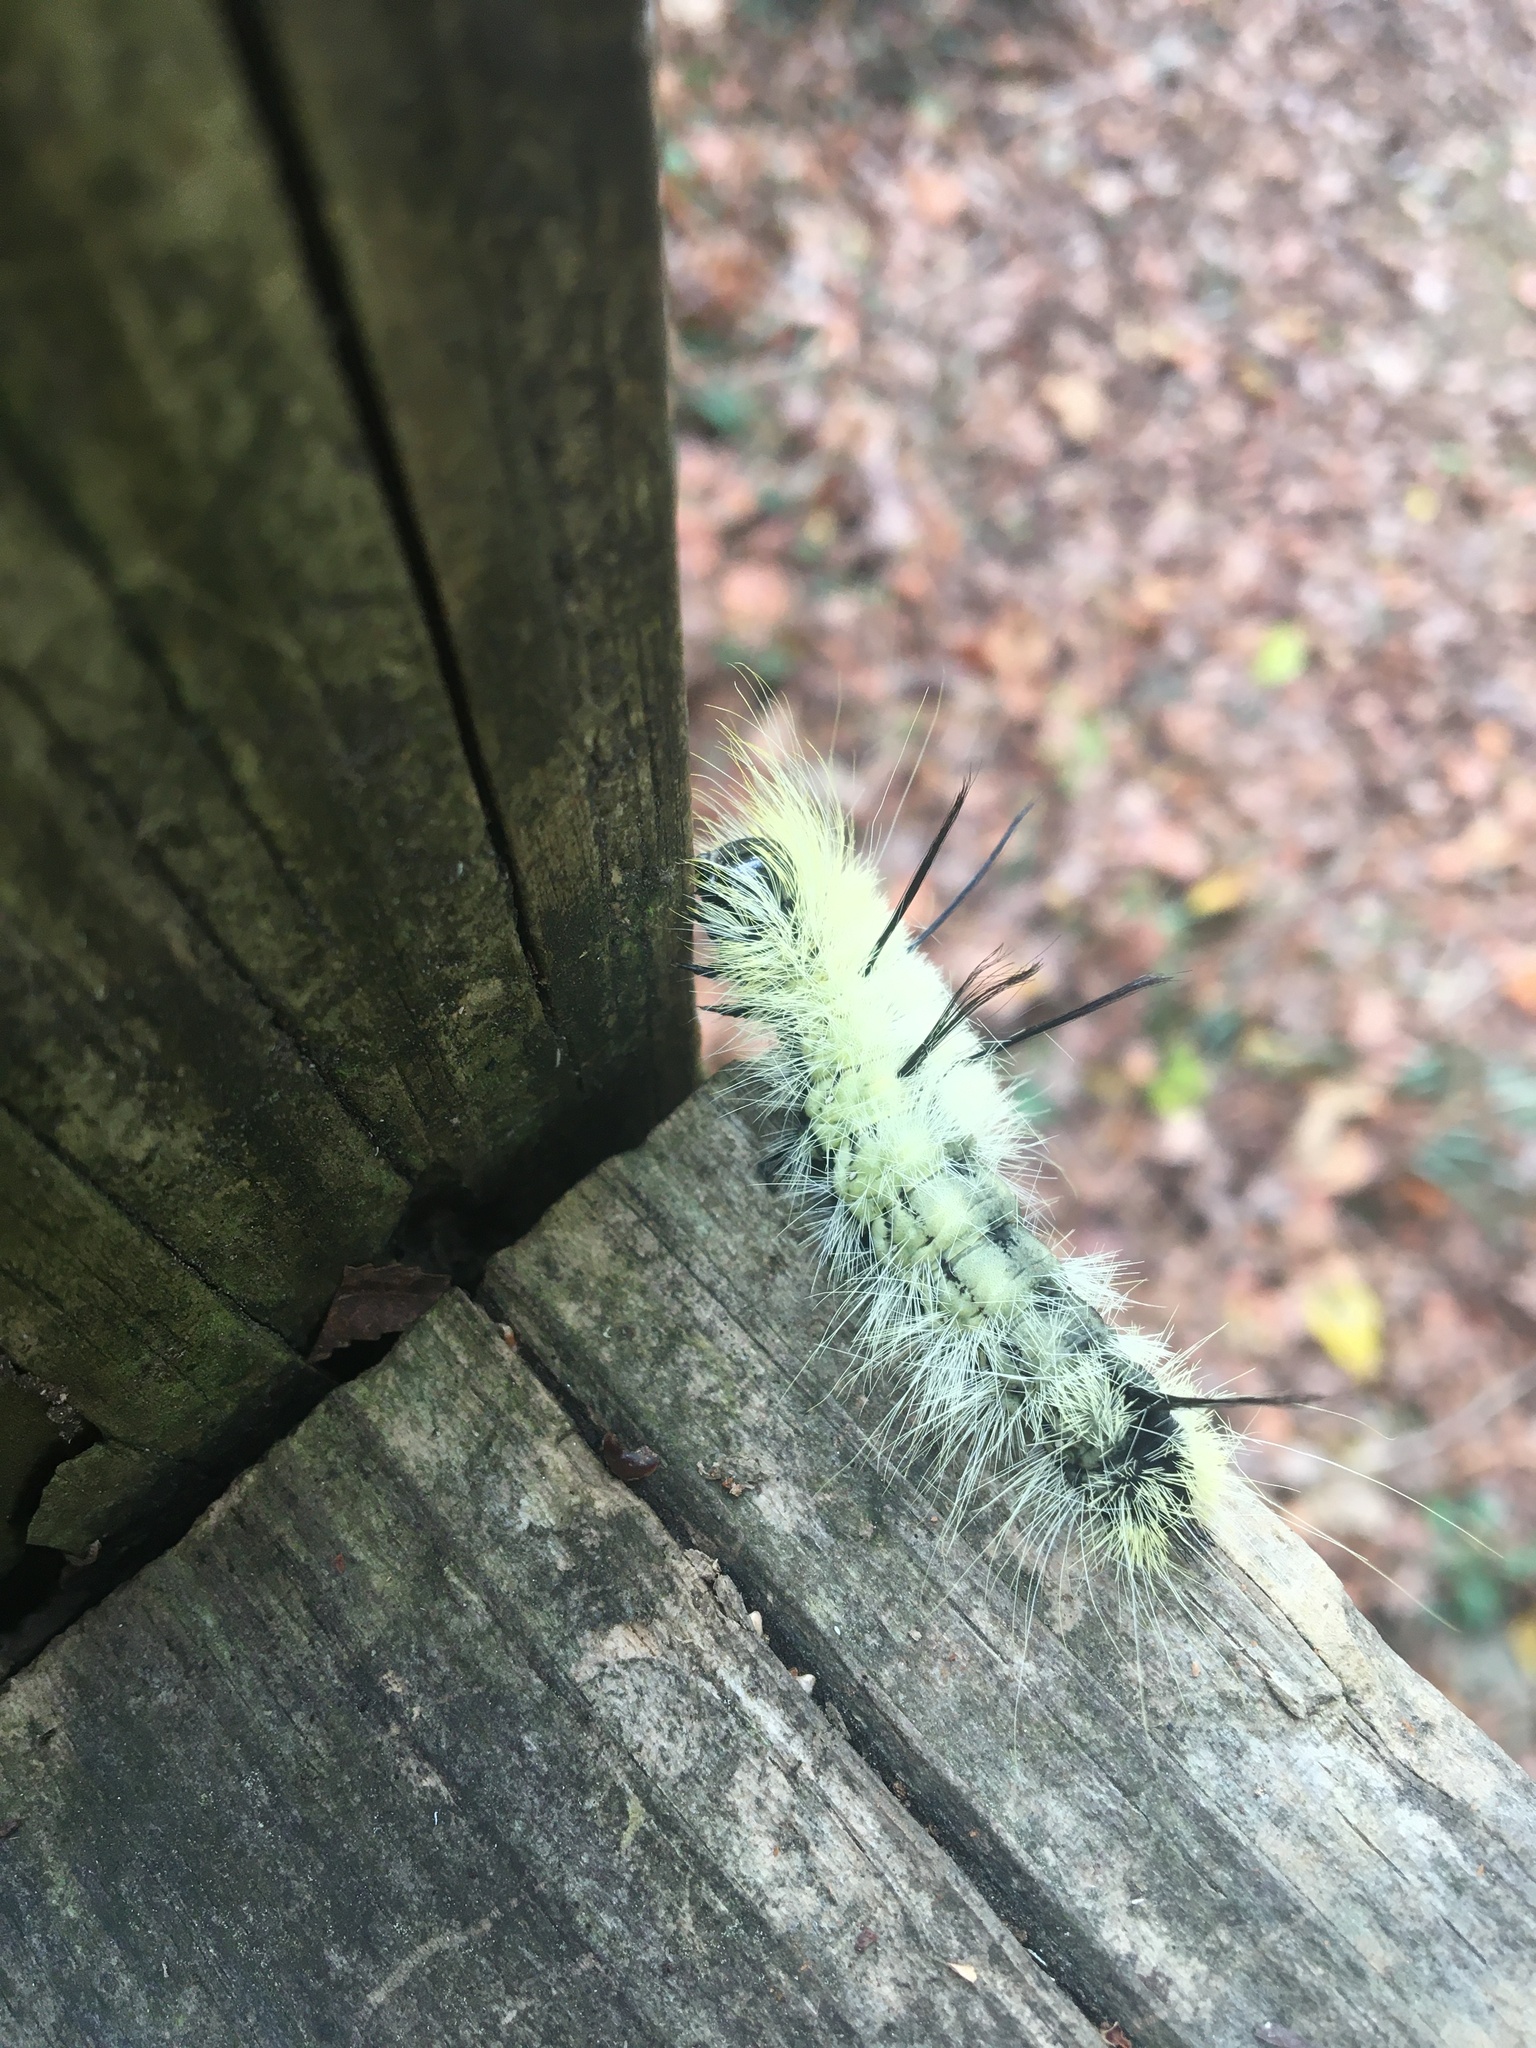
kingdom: Animalia
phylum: Arthropoda
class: Insecta
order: Lepidoptera
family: Noctuidae
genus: Acronicta
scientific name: Acronicta americana
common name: American dagger
